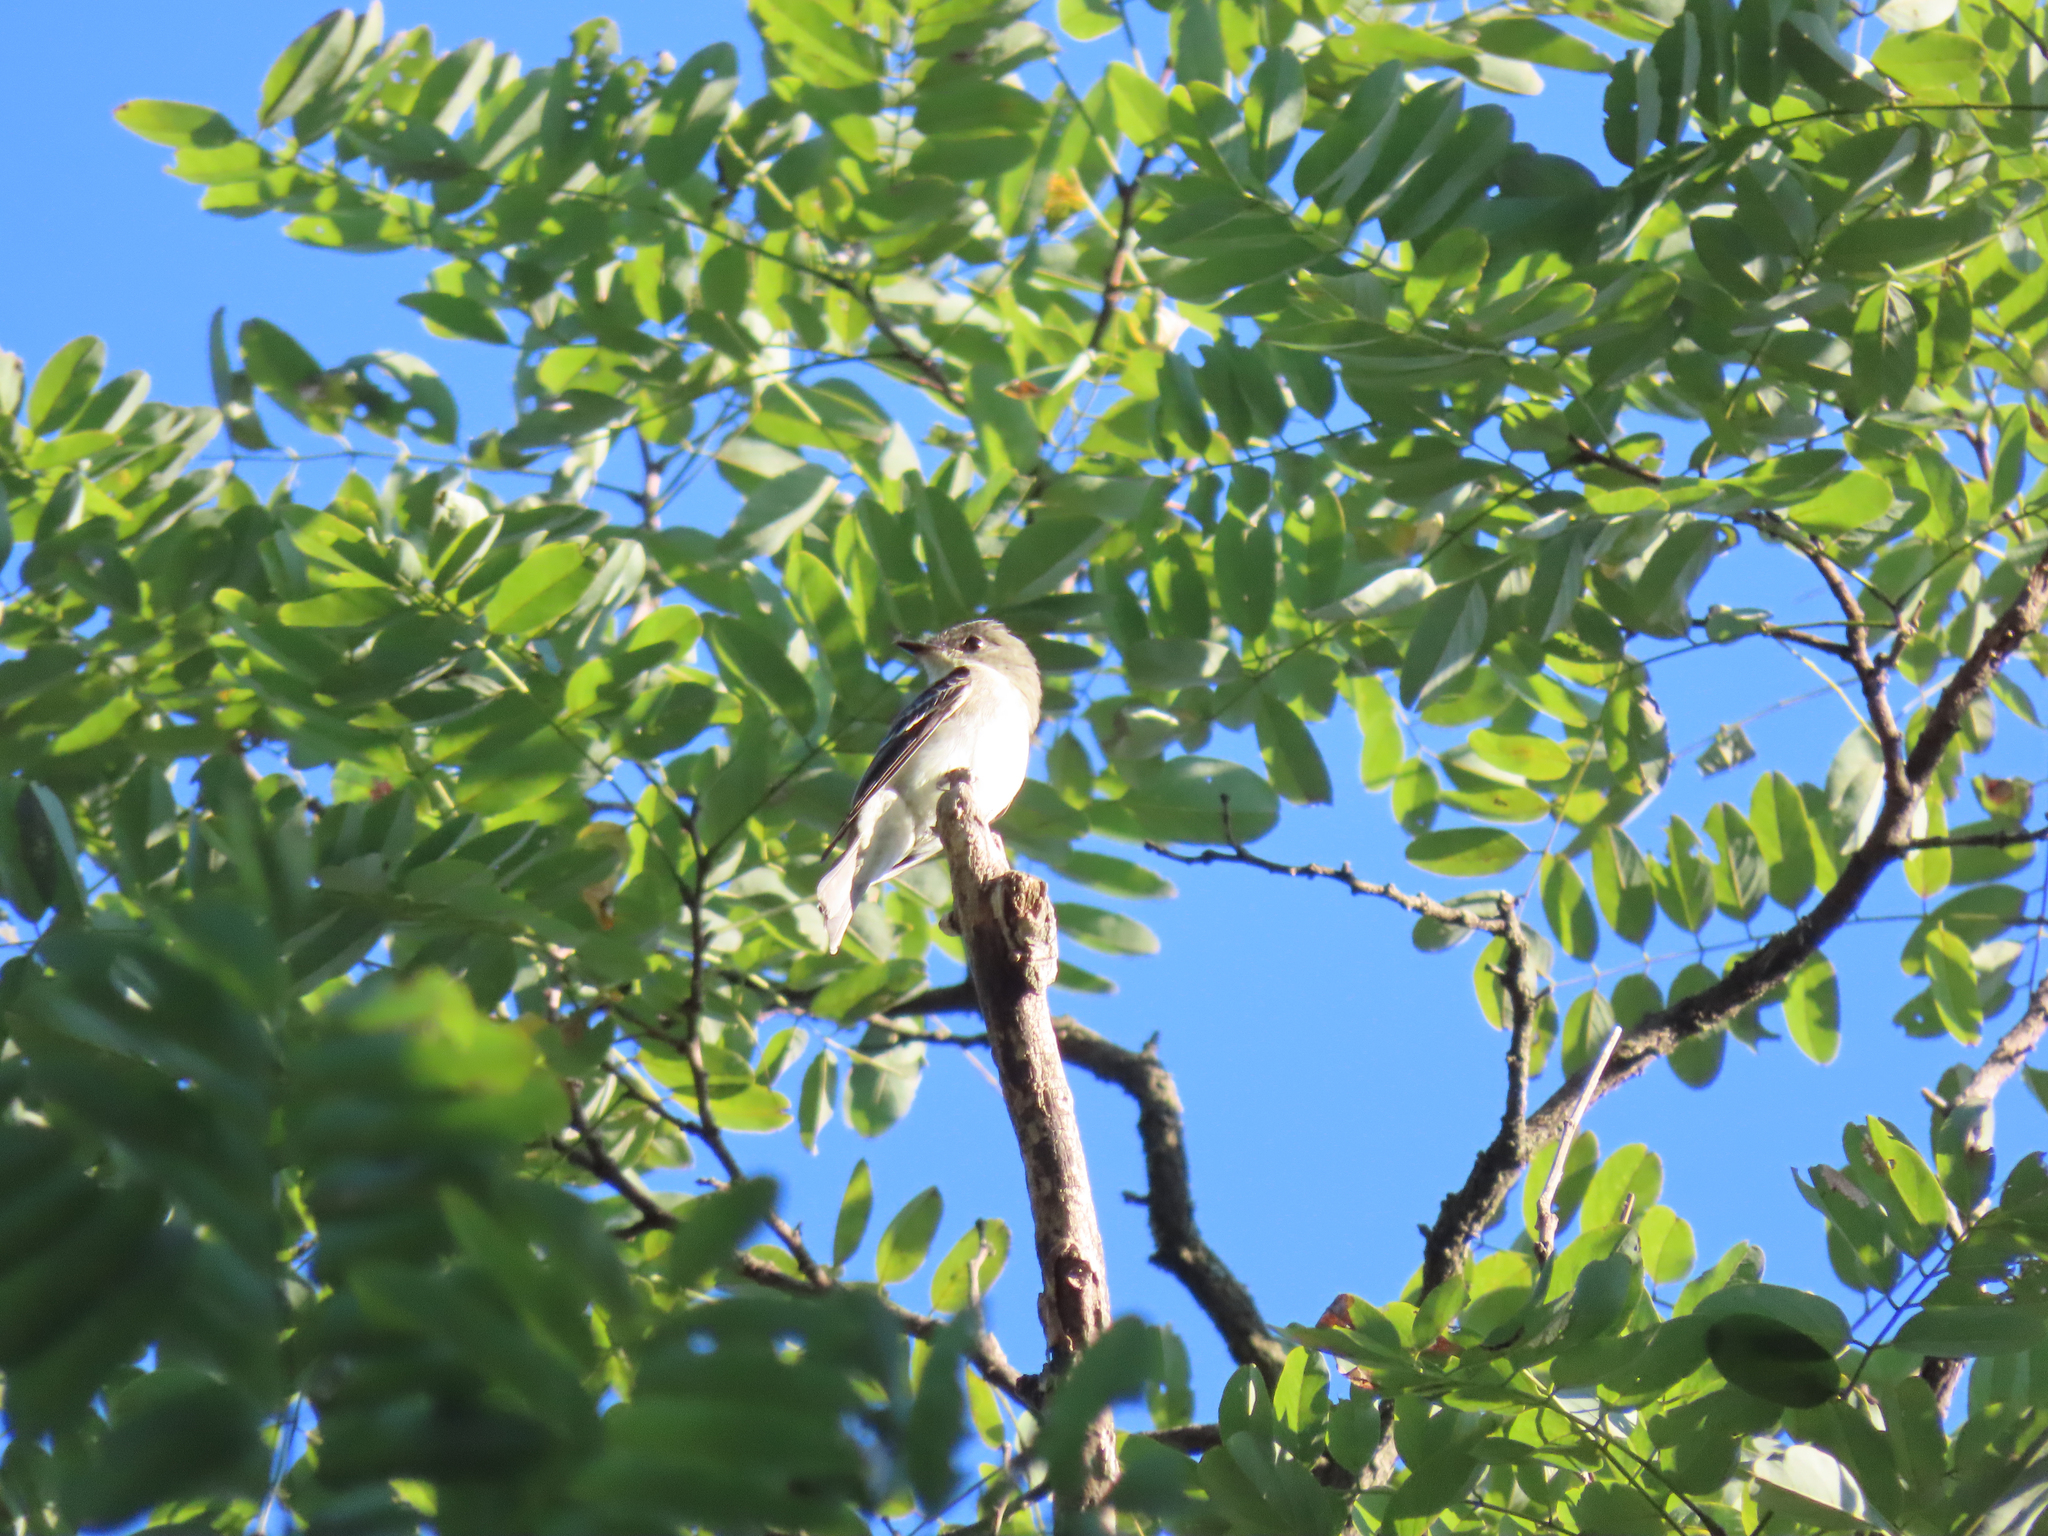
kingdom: Animalia
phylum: Chordata
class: Aves
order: Passeriformes
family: Tyrannidae
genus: Contopus
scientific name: Contopus virens
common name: Eastern wood-pewee
